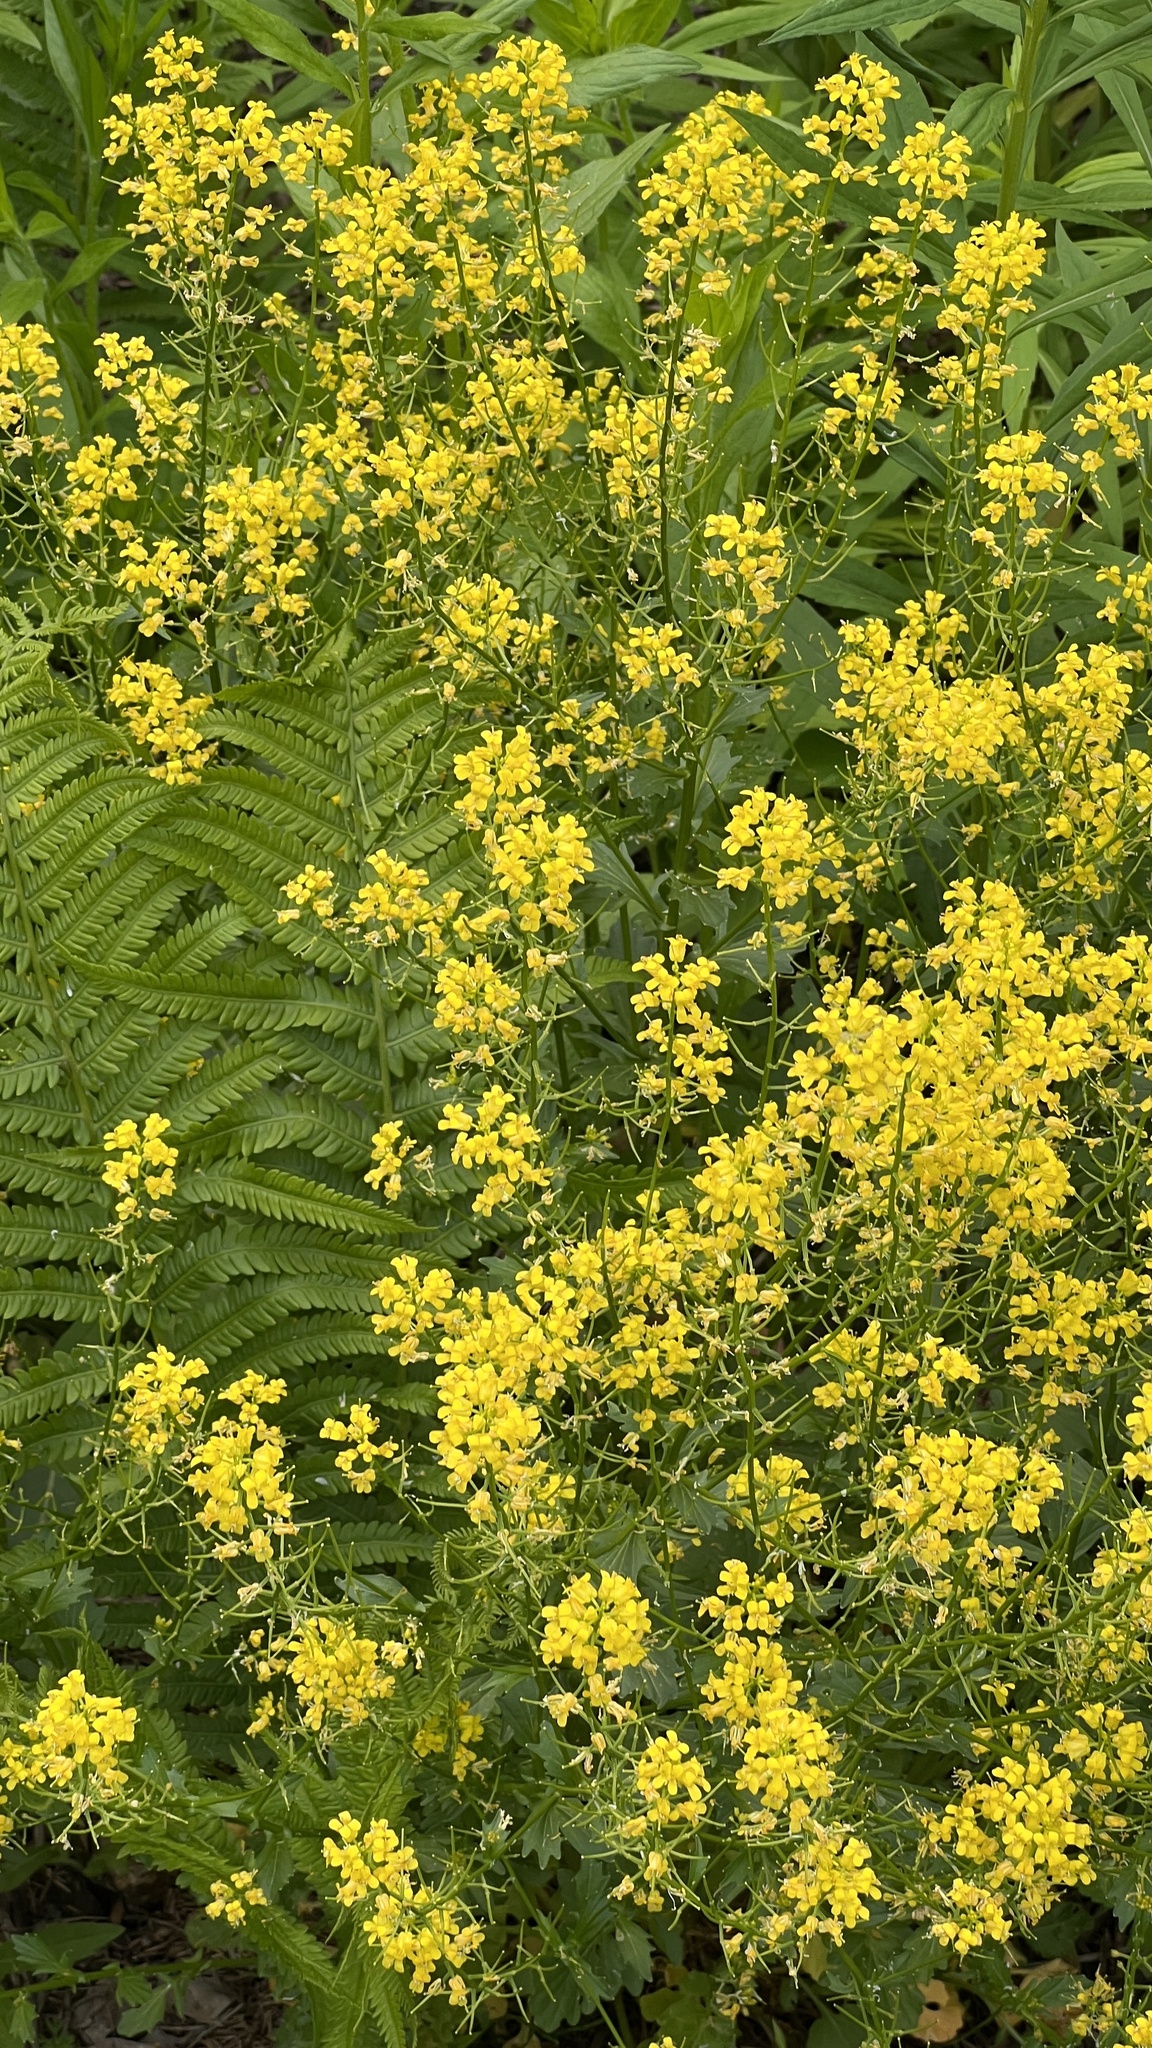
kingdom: Plantae
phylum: Tracheophyta
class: Magnoliopsida
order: Brassicales
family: Brassicaceae
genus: Barbarea
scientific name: Barbarea vulgaris
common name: Cressy-greens
